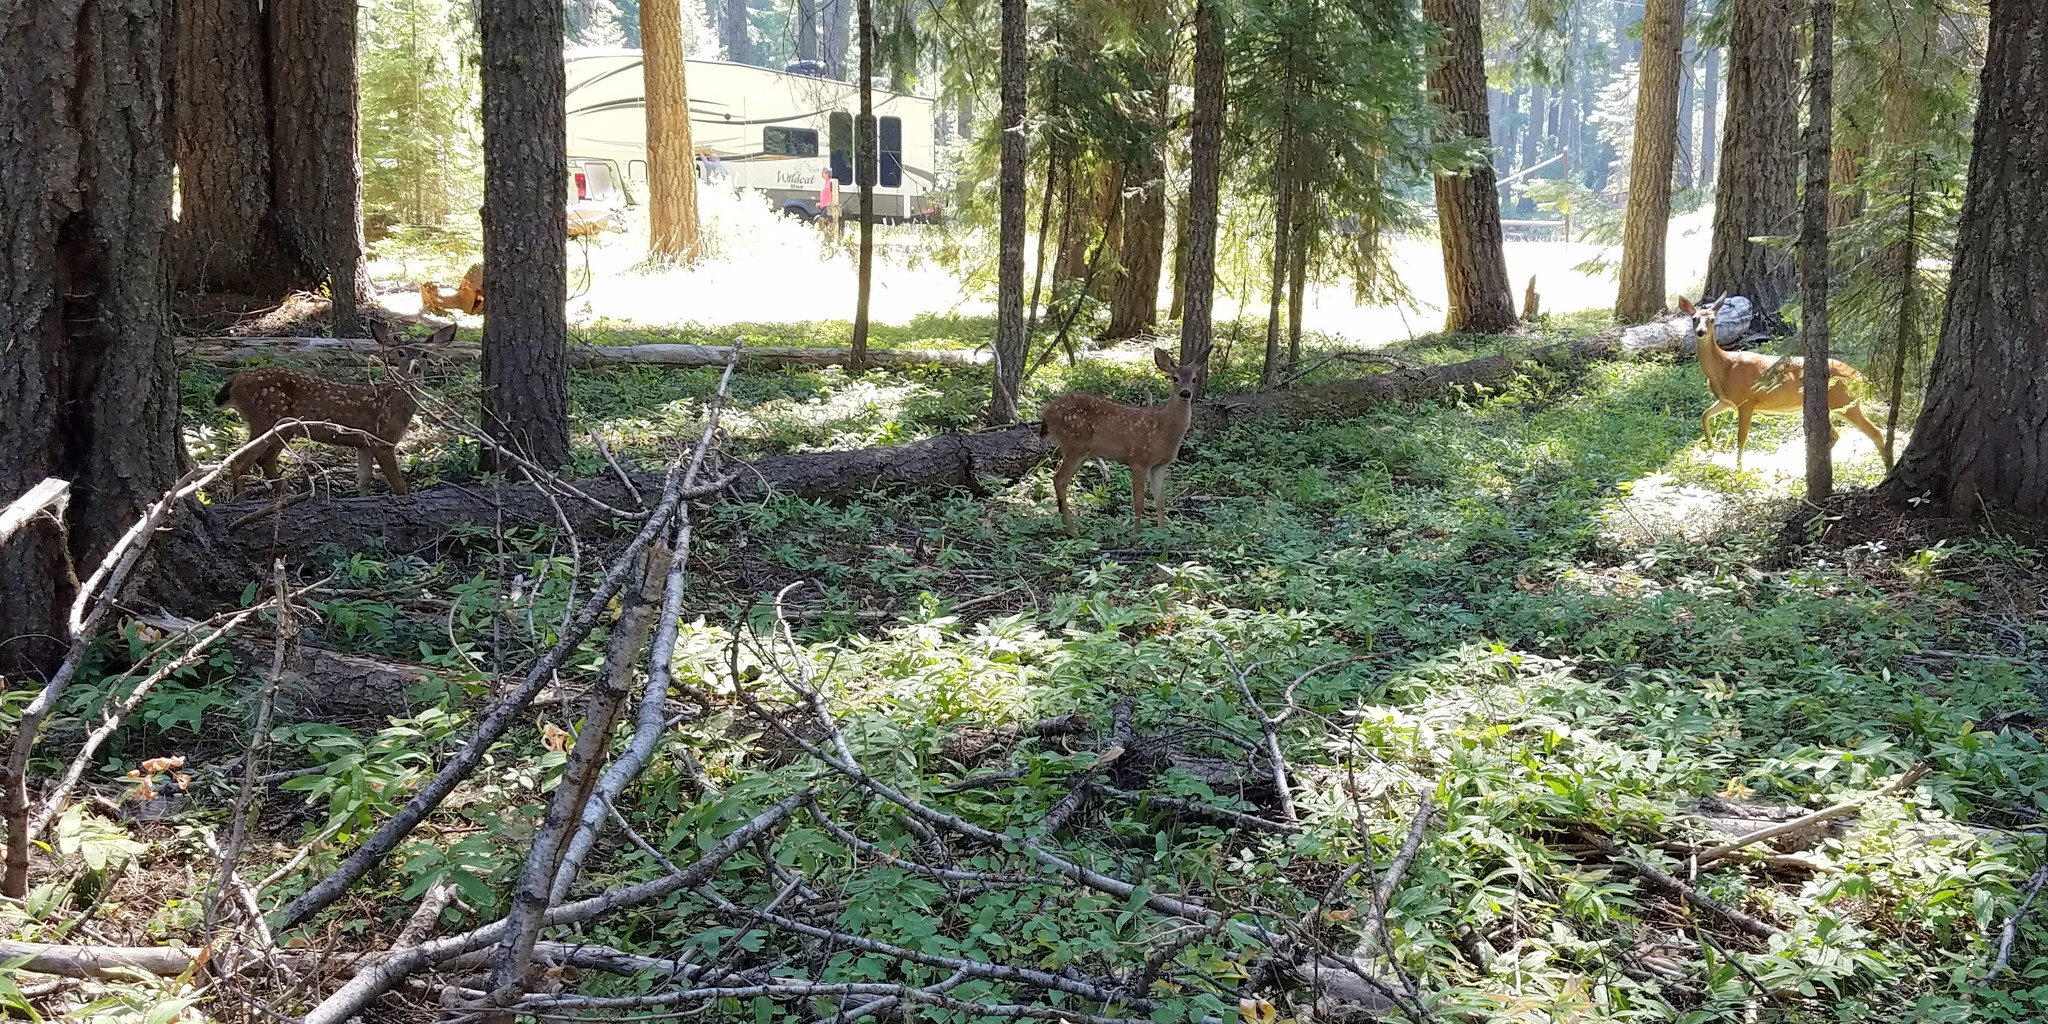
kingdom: Animalia
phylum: Chordata
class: Mammalia
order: Artiodactyla
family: Cervidae
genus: Odocoileus
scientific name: Odocoileus hemionus
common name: Mule deer
